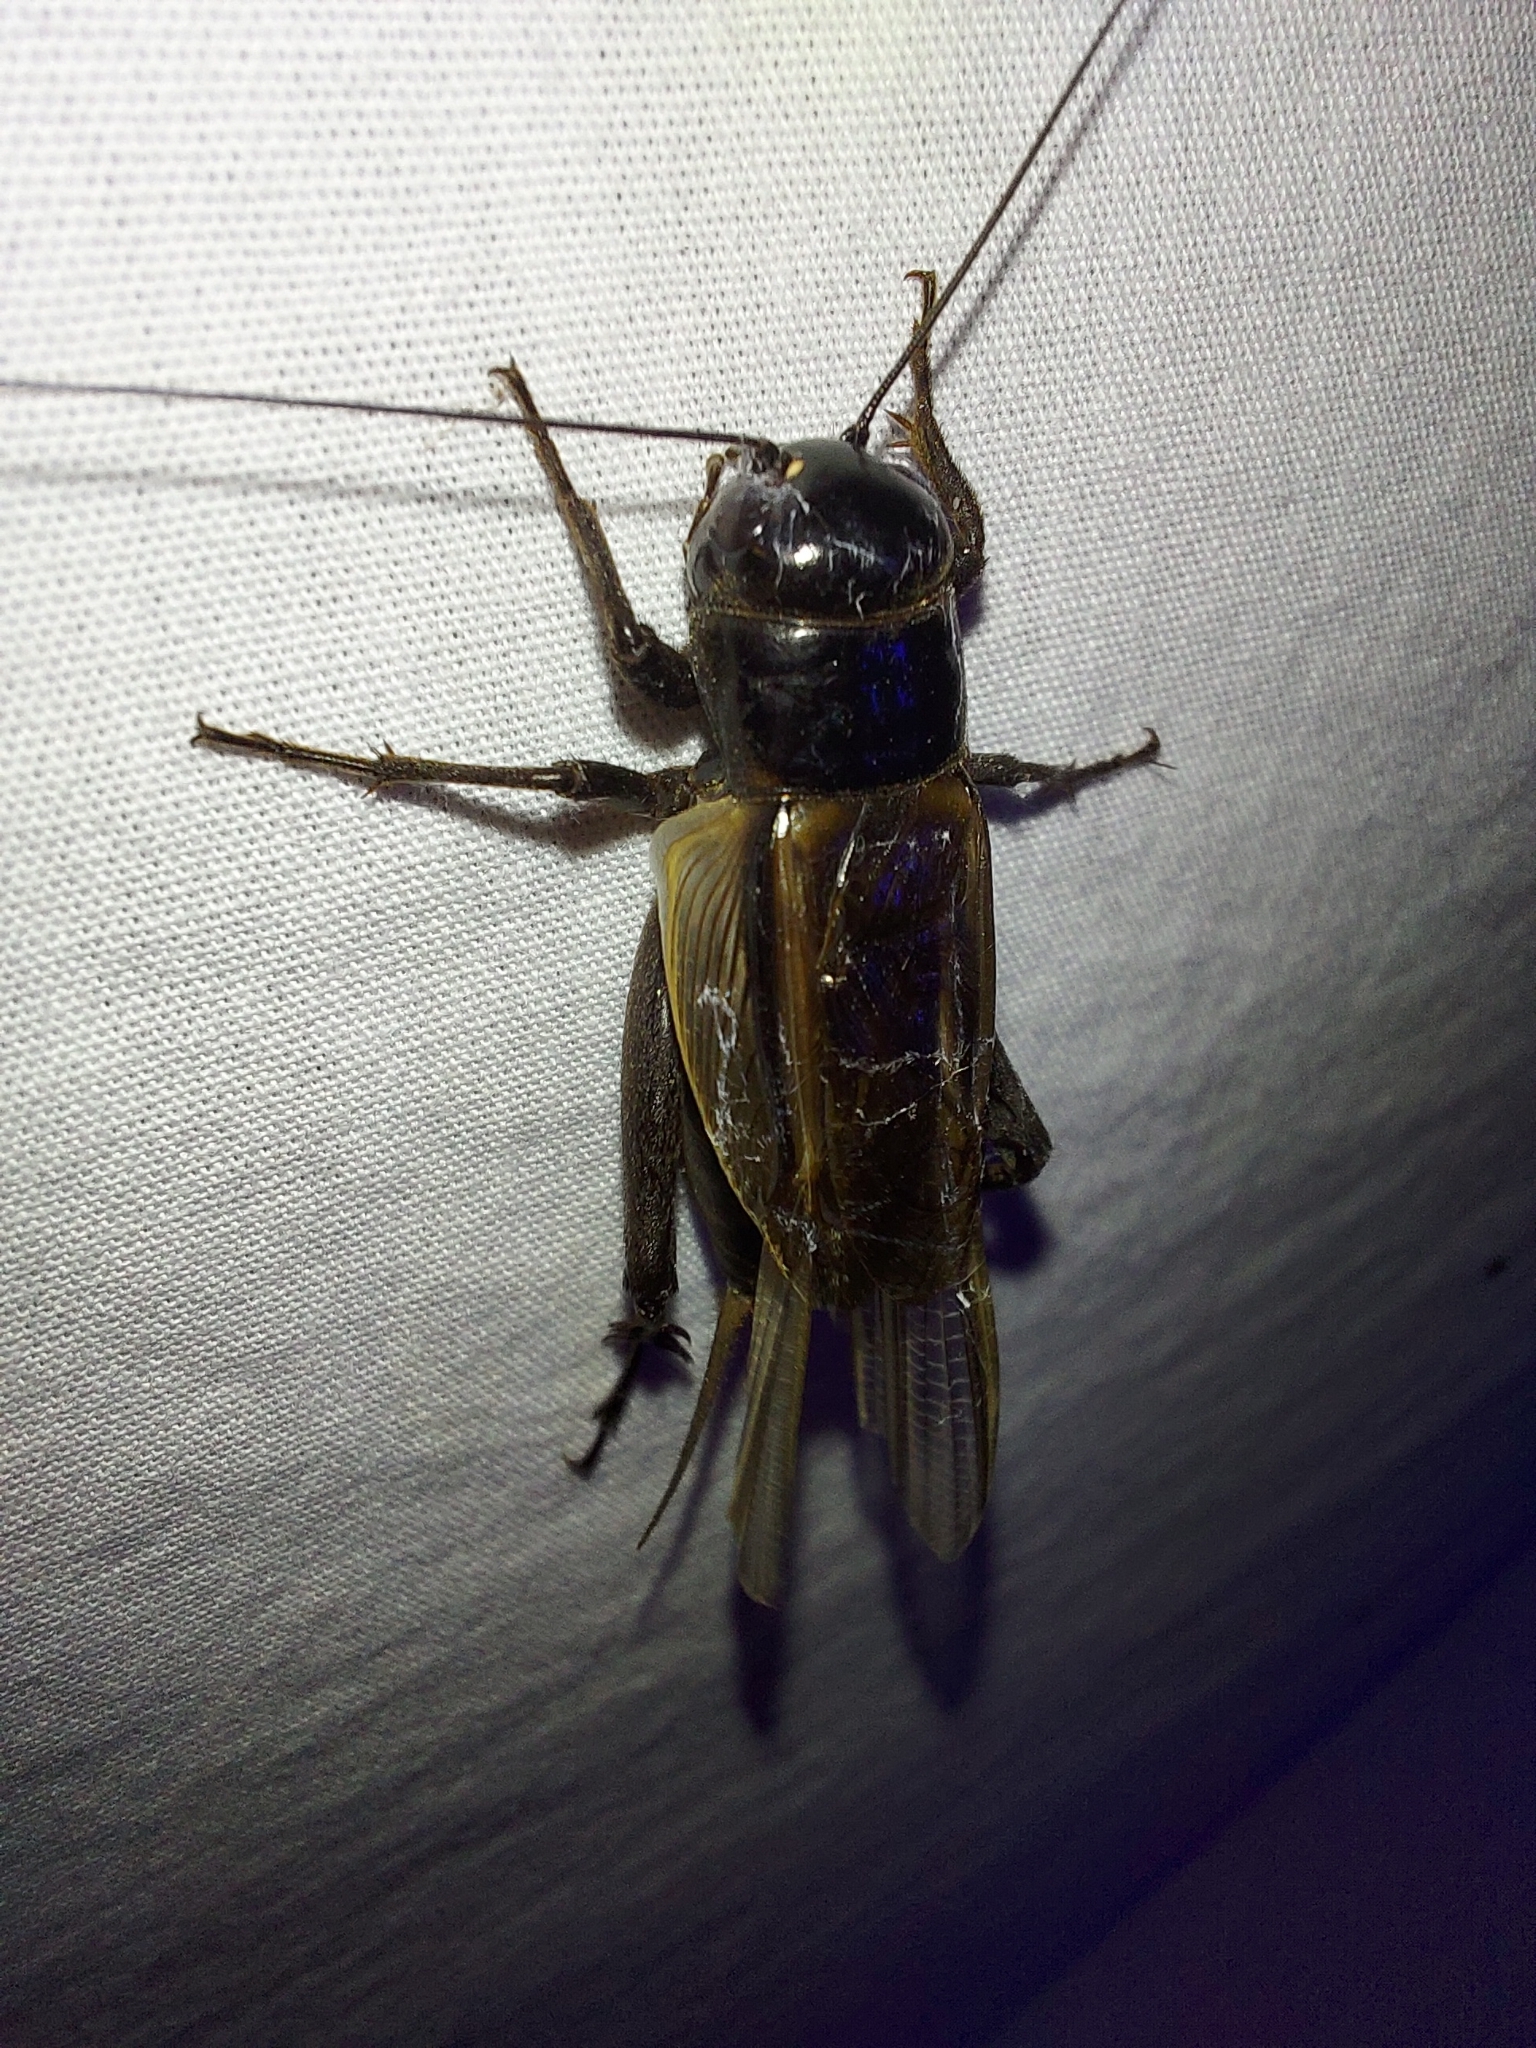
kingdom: Animalia
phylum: Arthropoda
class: Insecta
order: Orthoptera
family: Gryllidae
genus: Teleogryllus
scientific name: Teleogryllus commodus
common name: Black field cricket
